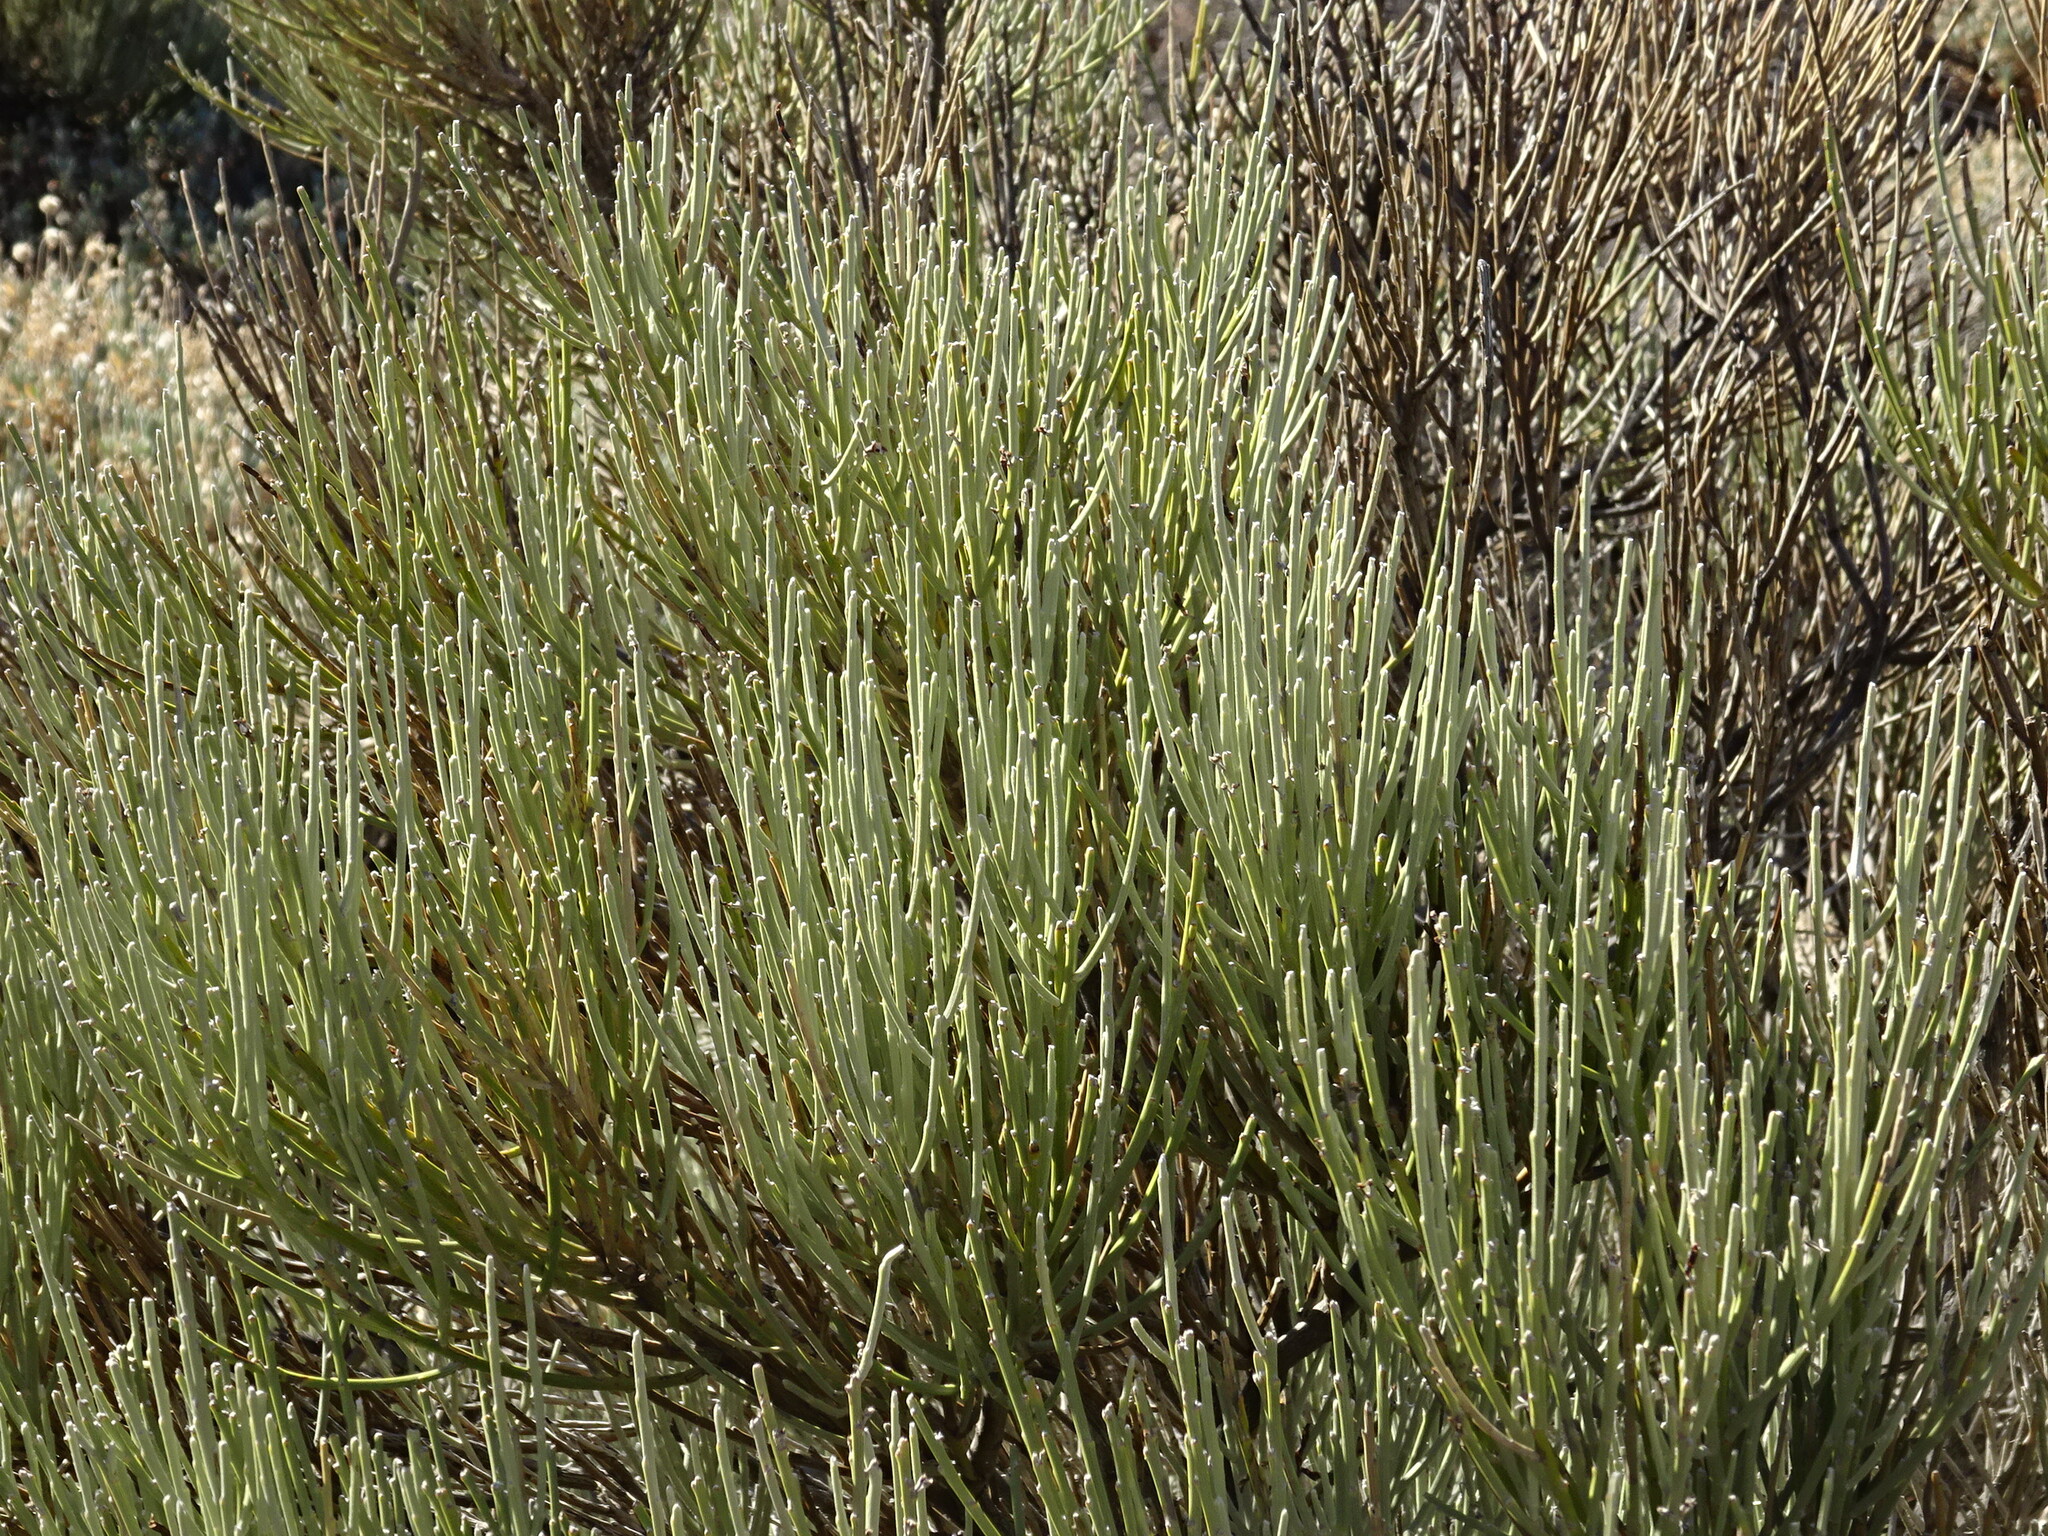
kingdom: Plantae
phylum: Tracheophyta
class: Magnoliopsida
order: Fabales
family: Fabaceae
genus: Cytisus
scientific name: Cytisus supranubius
